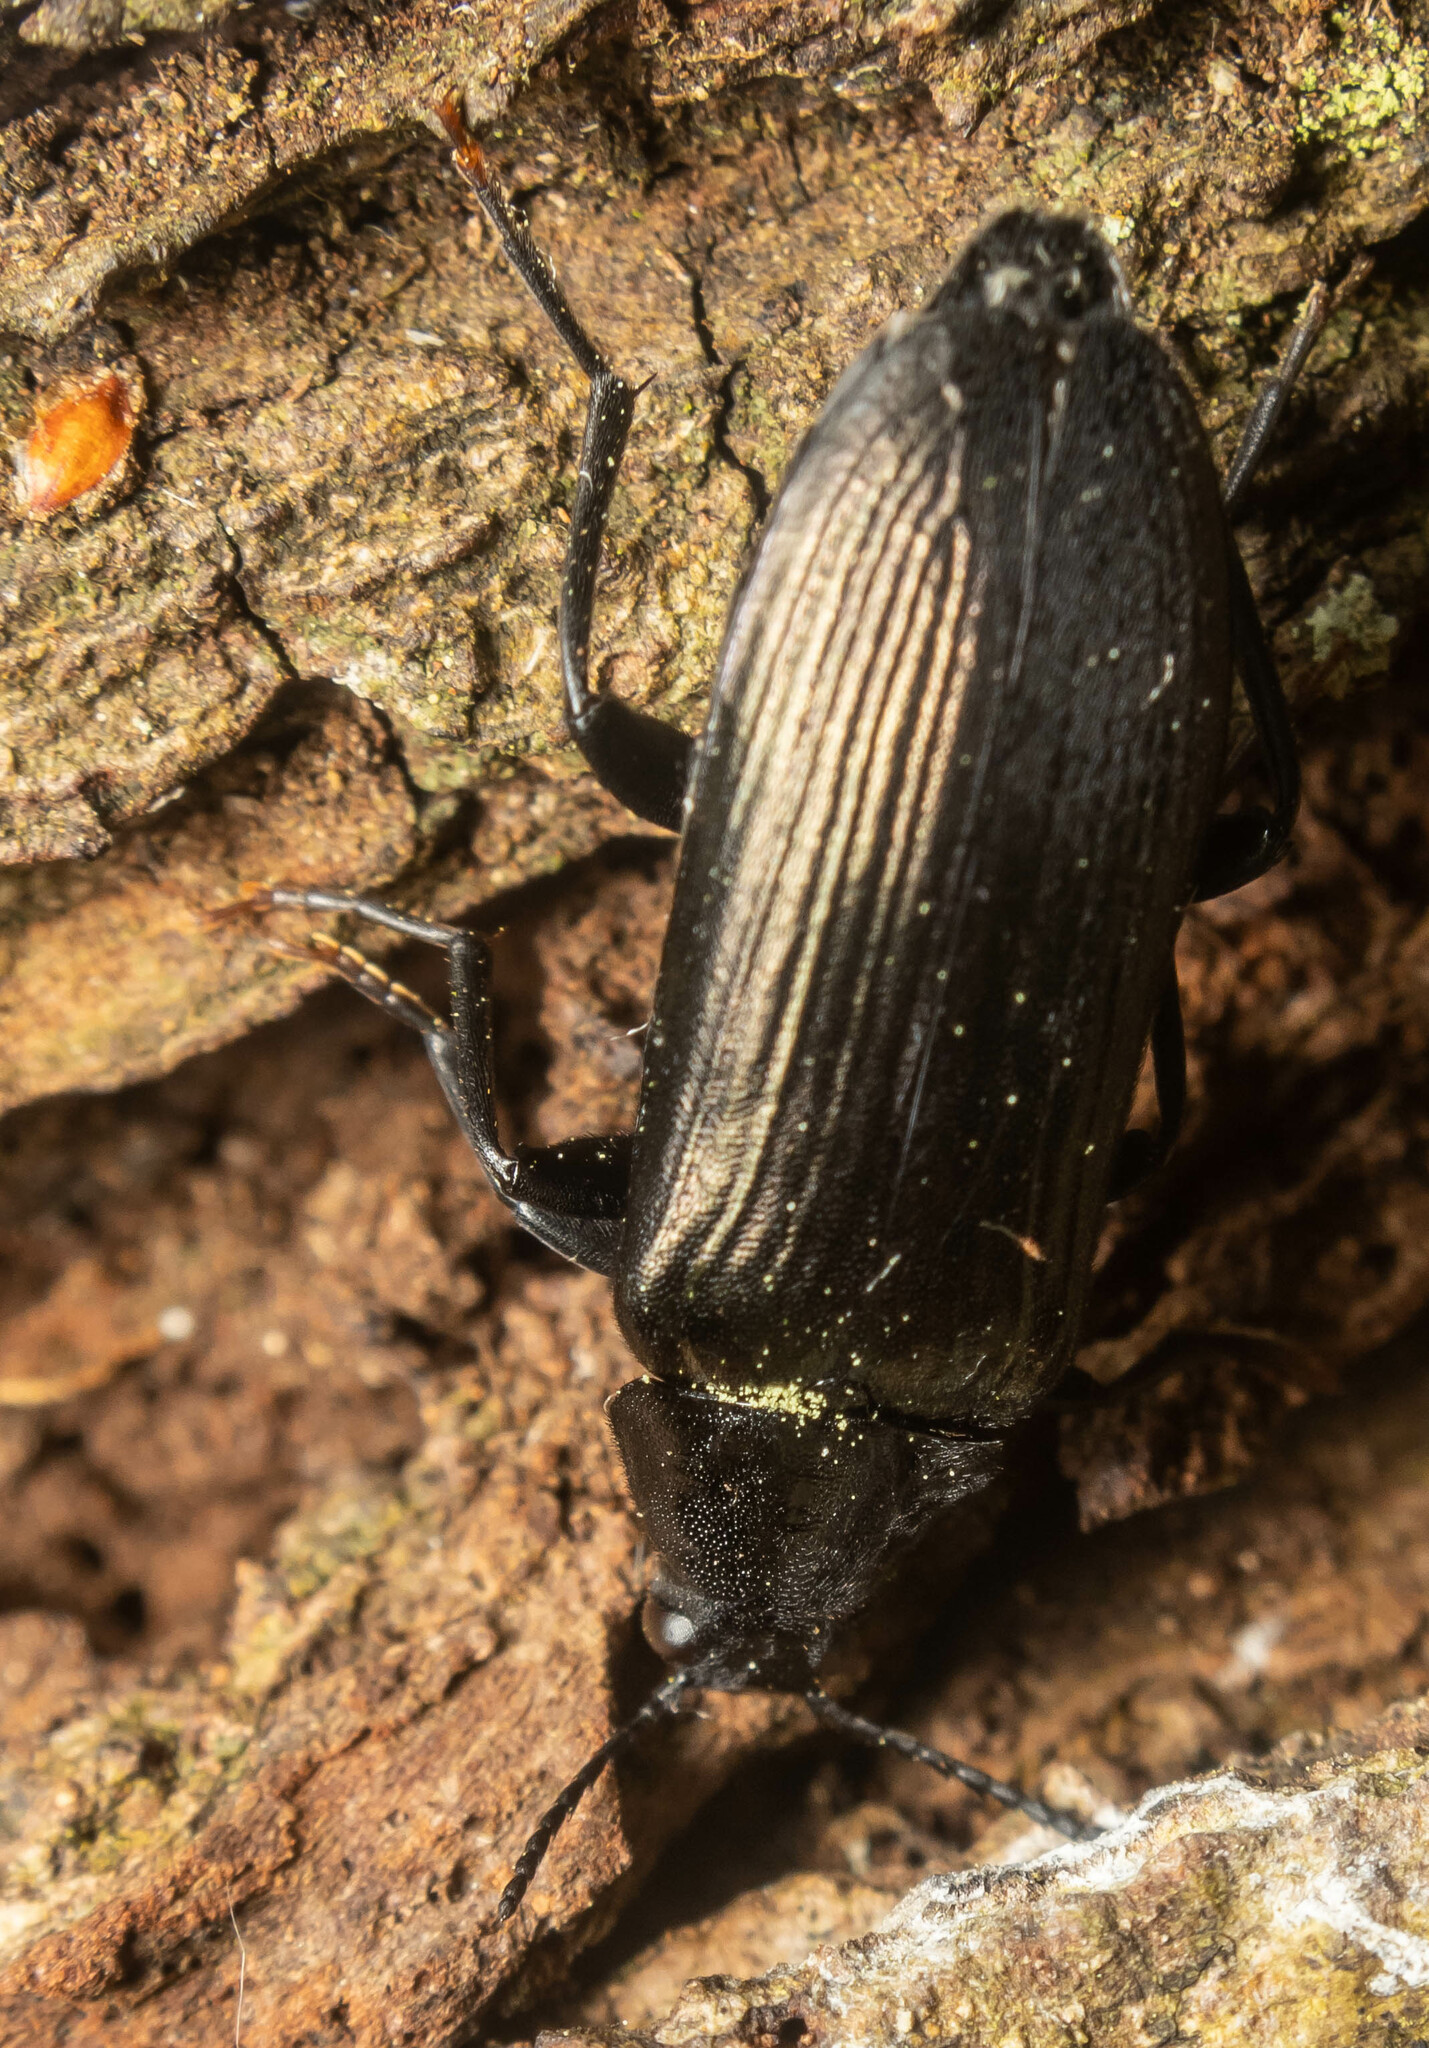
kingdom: Animalia
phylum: Arthropoda
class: Insecta
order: Coleoptera
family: Melandryidae
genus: Melandrya
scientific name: Melandrya caraboides
